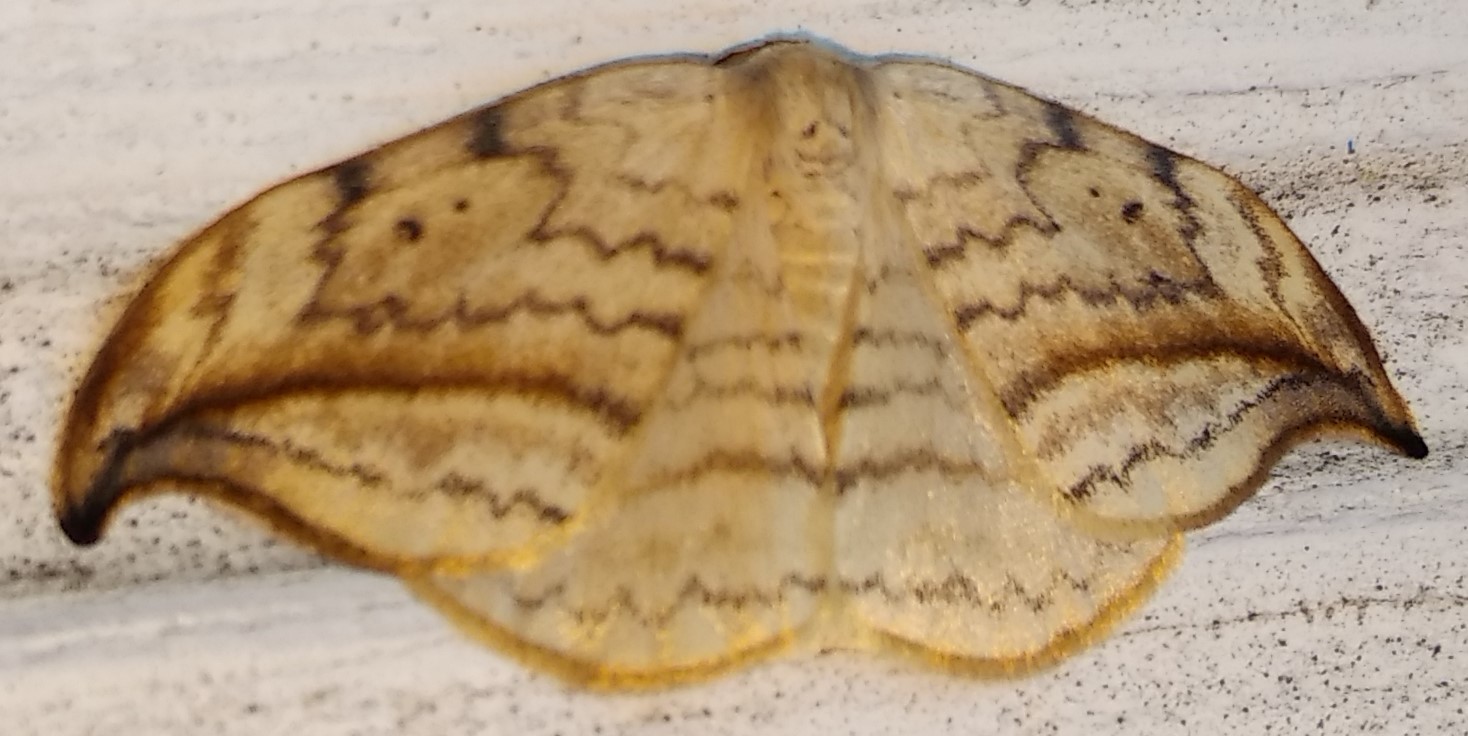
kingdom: Animalia
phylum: Arthropoda
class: Insecta
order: Lepidoptera
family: Drepanidae
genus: Drepana
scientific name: Drepana arcuata
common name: Arched hooktip moth
